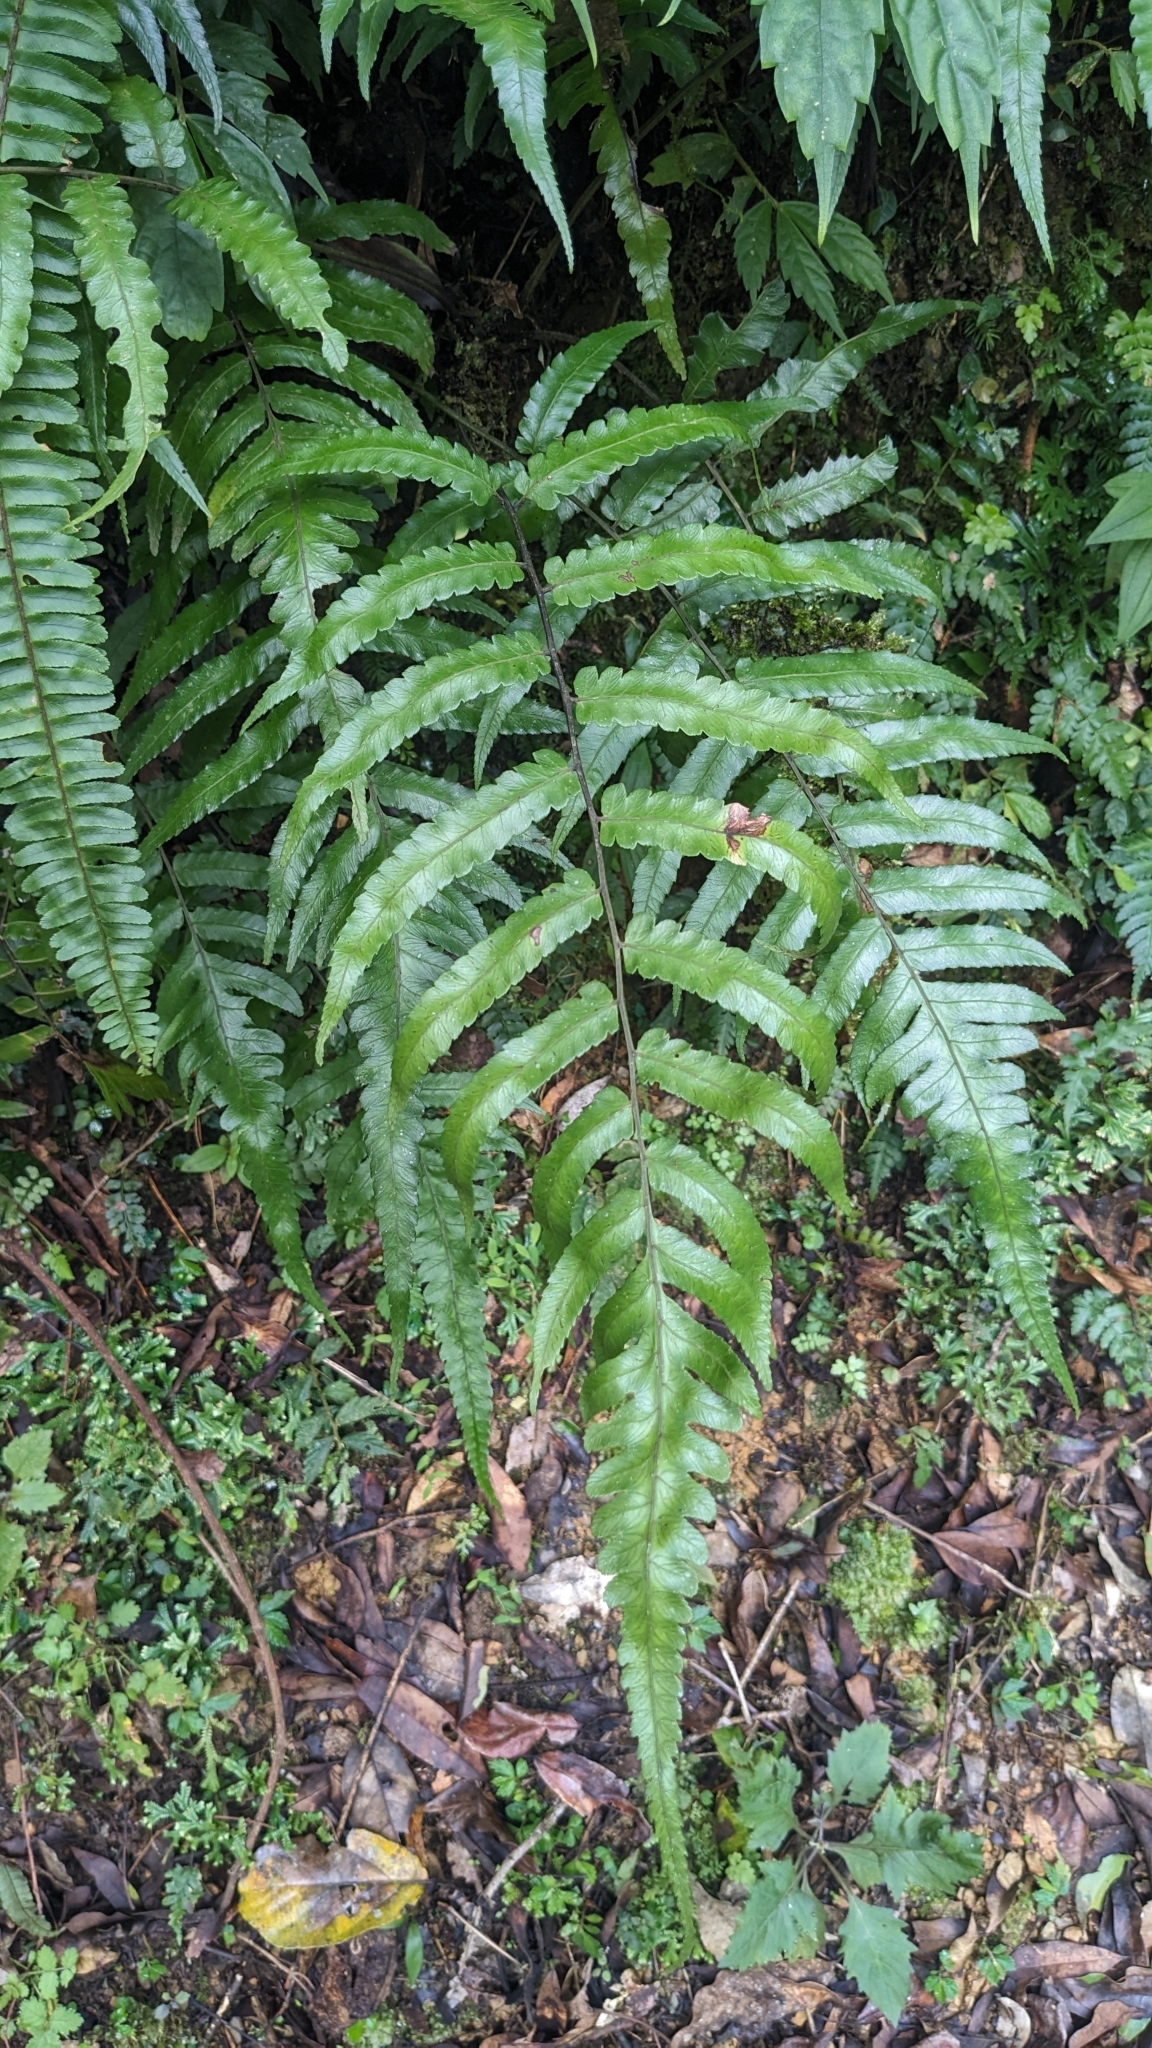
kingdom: Plantae
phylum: Tracheophyta
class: Polypodiopsida
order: Polypodiales
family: Athyriaceae
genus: Diplazium
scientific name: Diplazium dilatatum
